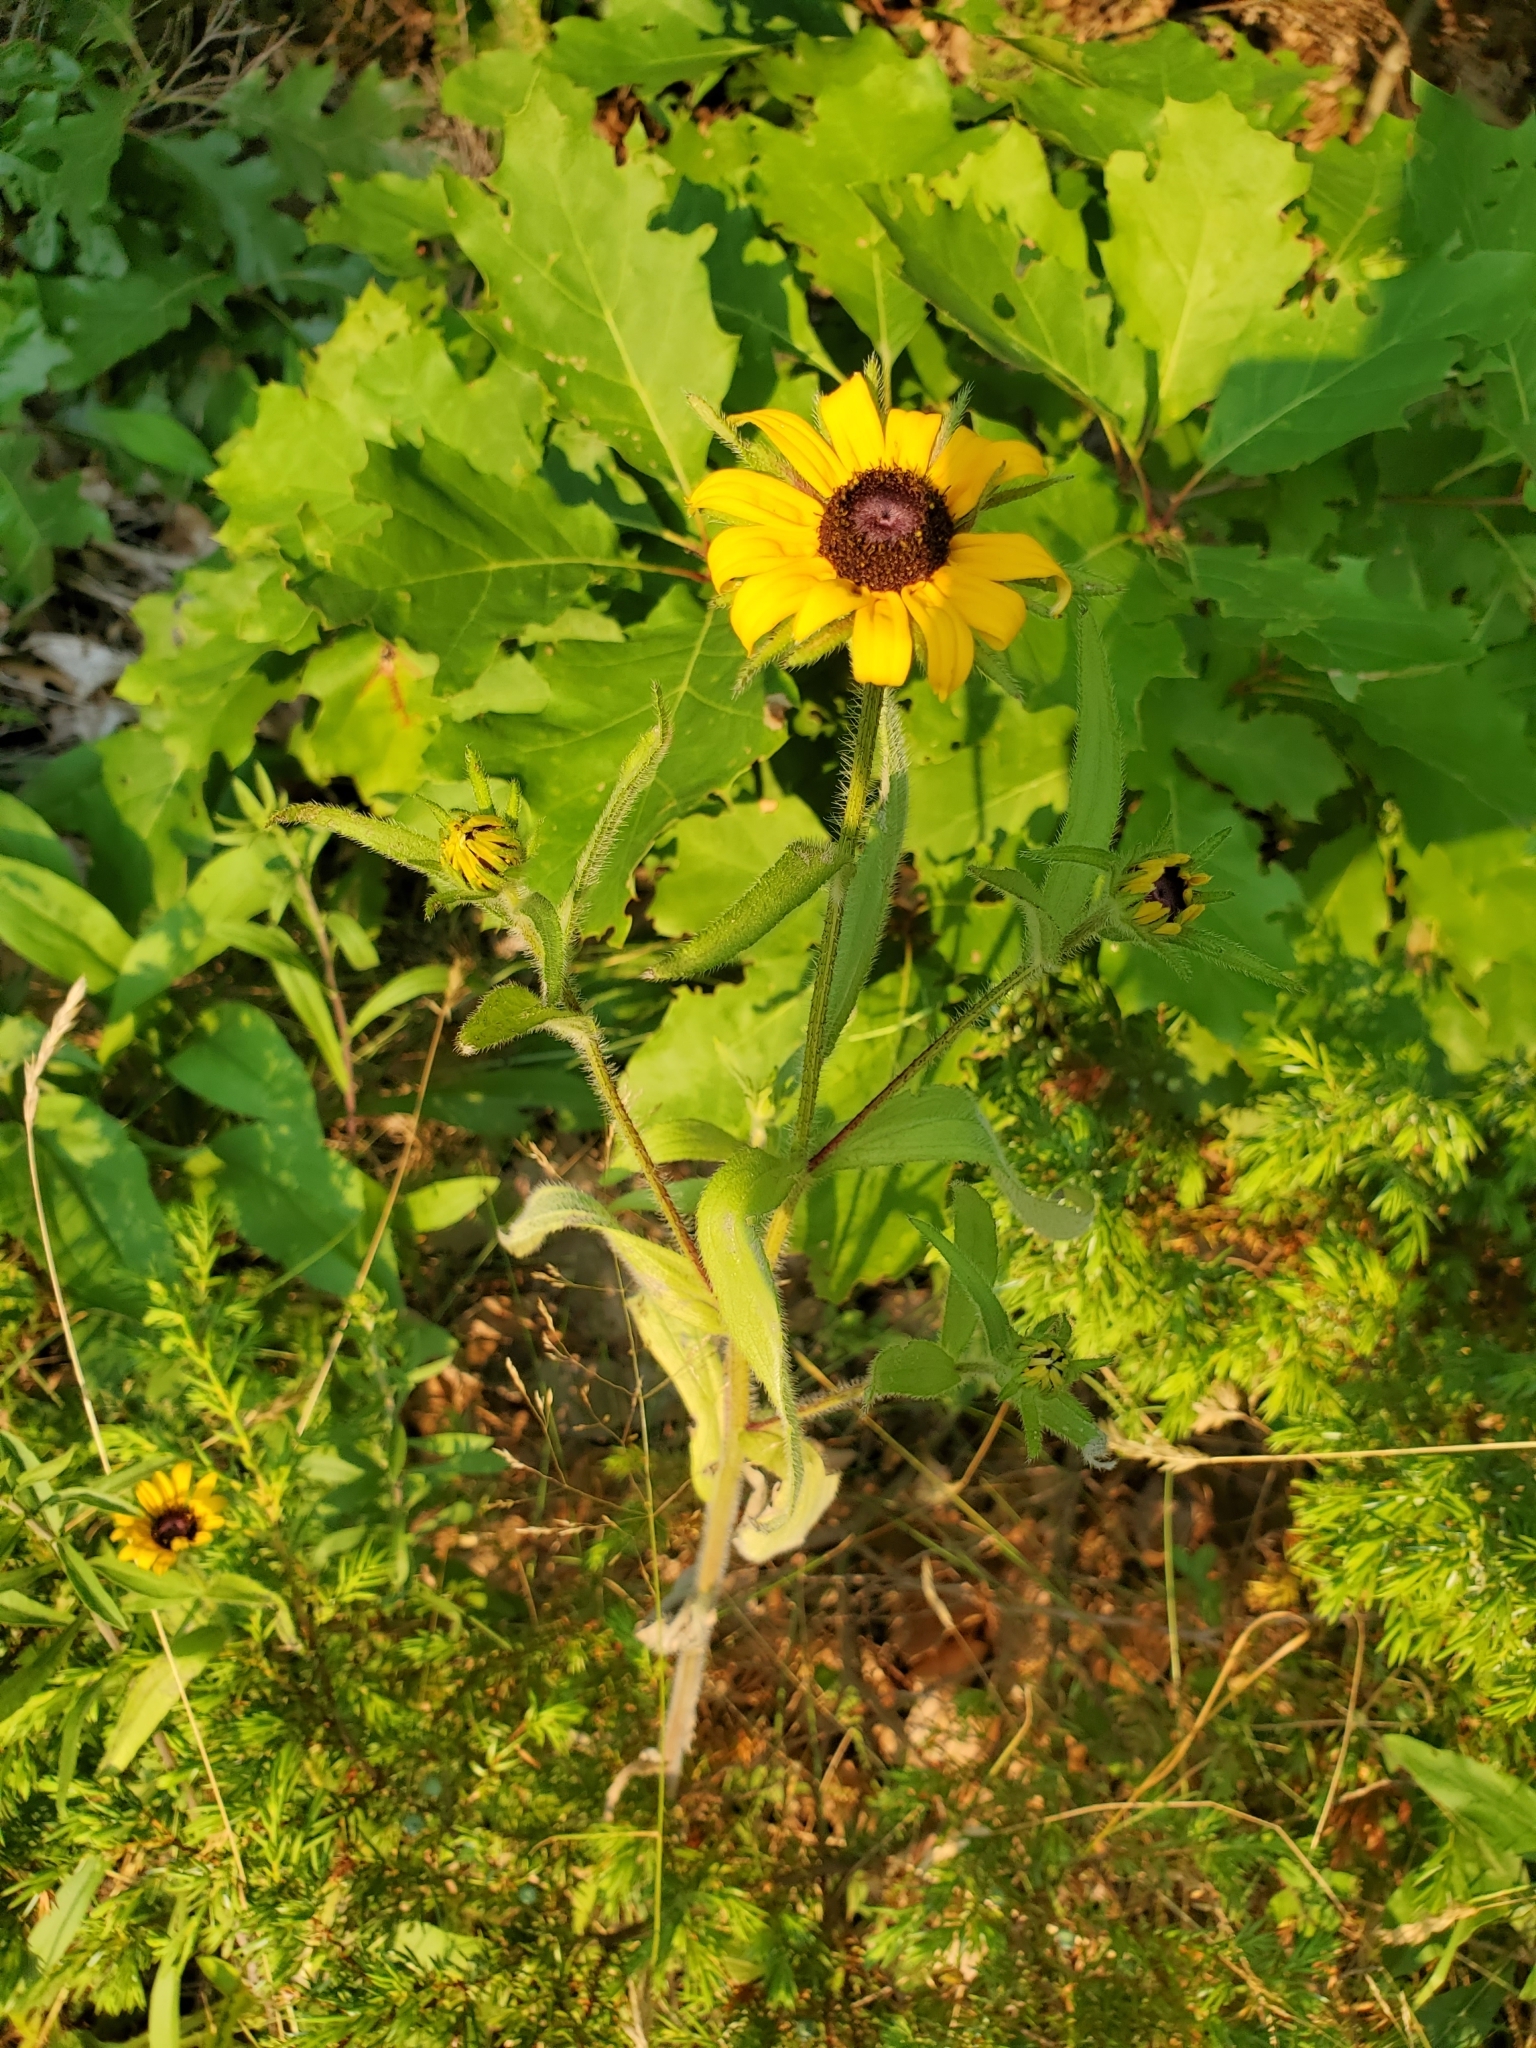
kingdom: Plantae
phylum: Tracheophyta
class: Magnoliopsida
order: Asterales
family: Asteraceae
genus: Rudbeckia
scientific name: Rudbeckia hirta
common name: Black-eyed-susan
